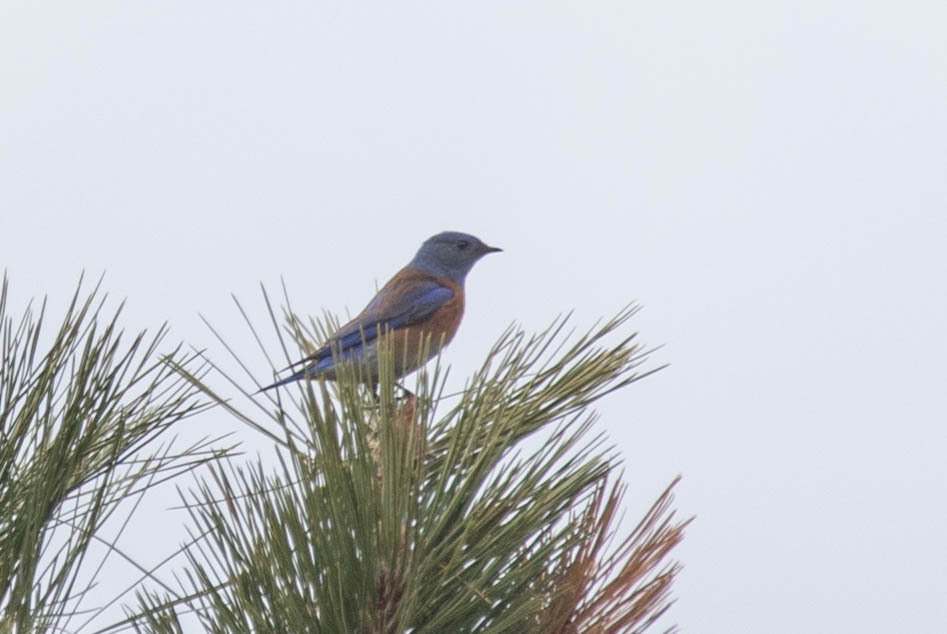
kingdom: Animalia
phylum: Chordata
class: Aves
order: Passeriformes
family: Turdidae
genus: Sialia
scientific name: Sialia mexicana
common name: Western bluebird
